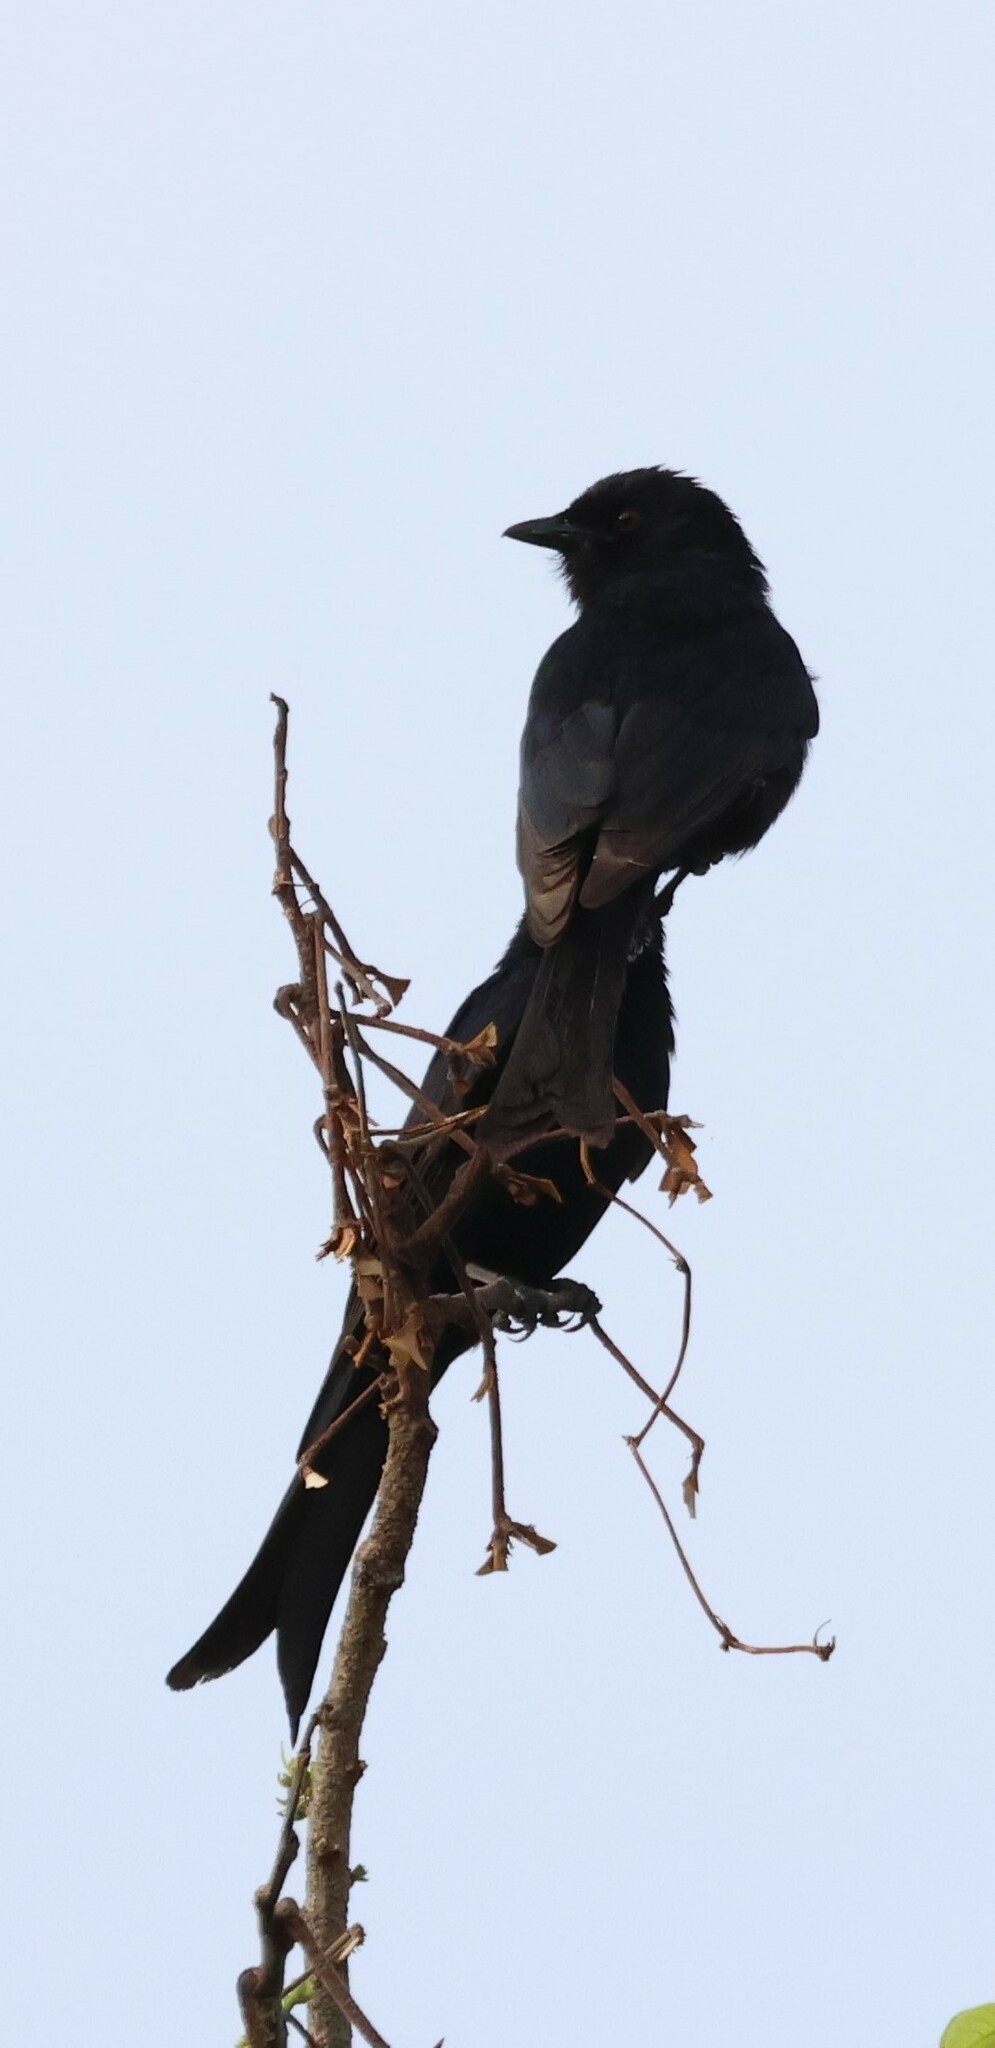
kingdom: Animalia
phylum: Chordata
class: Aves
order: Passeriformes
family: Dicruridae
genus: Dicrurus
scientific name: Dicrurus adsimilis
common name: Fork-tailed drongo
